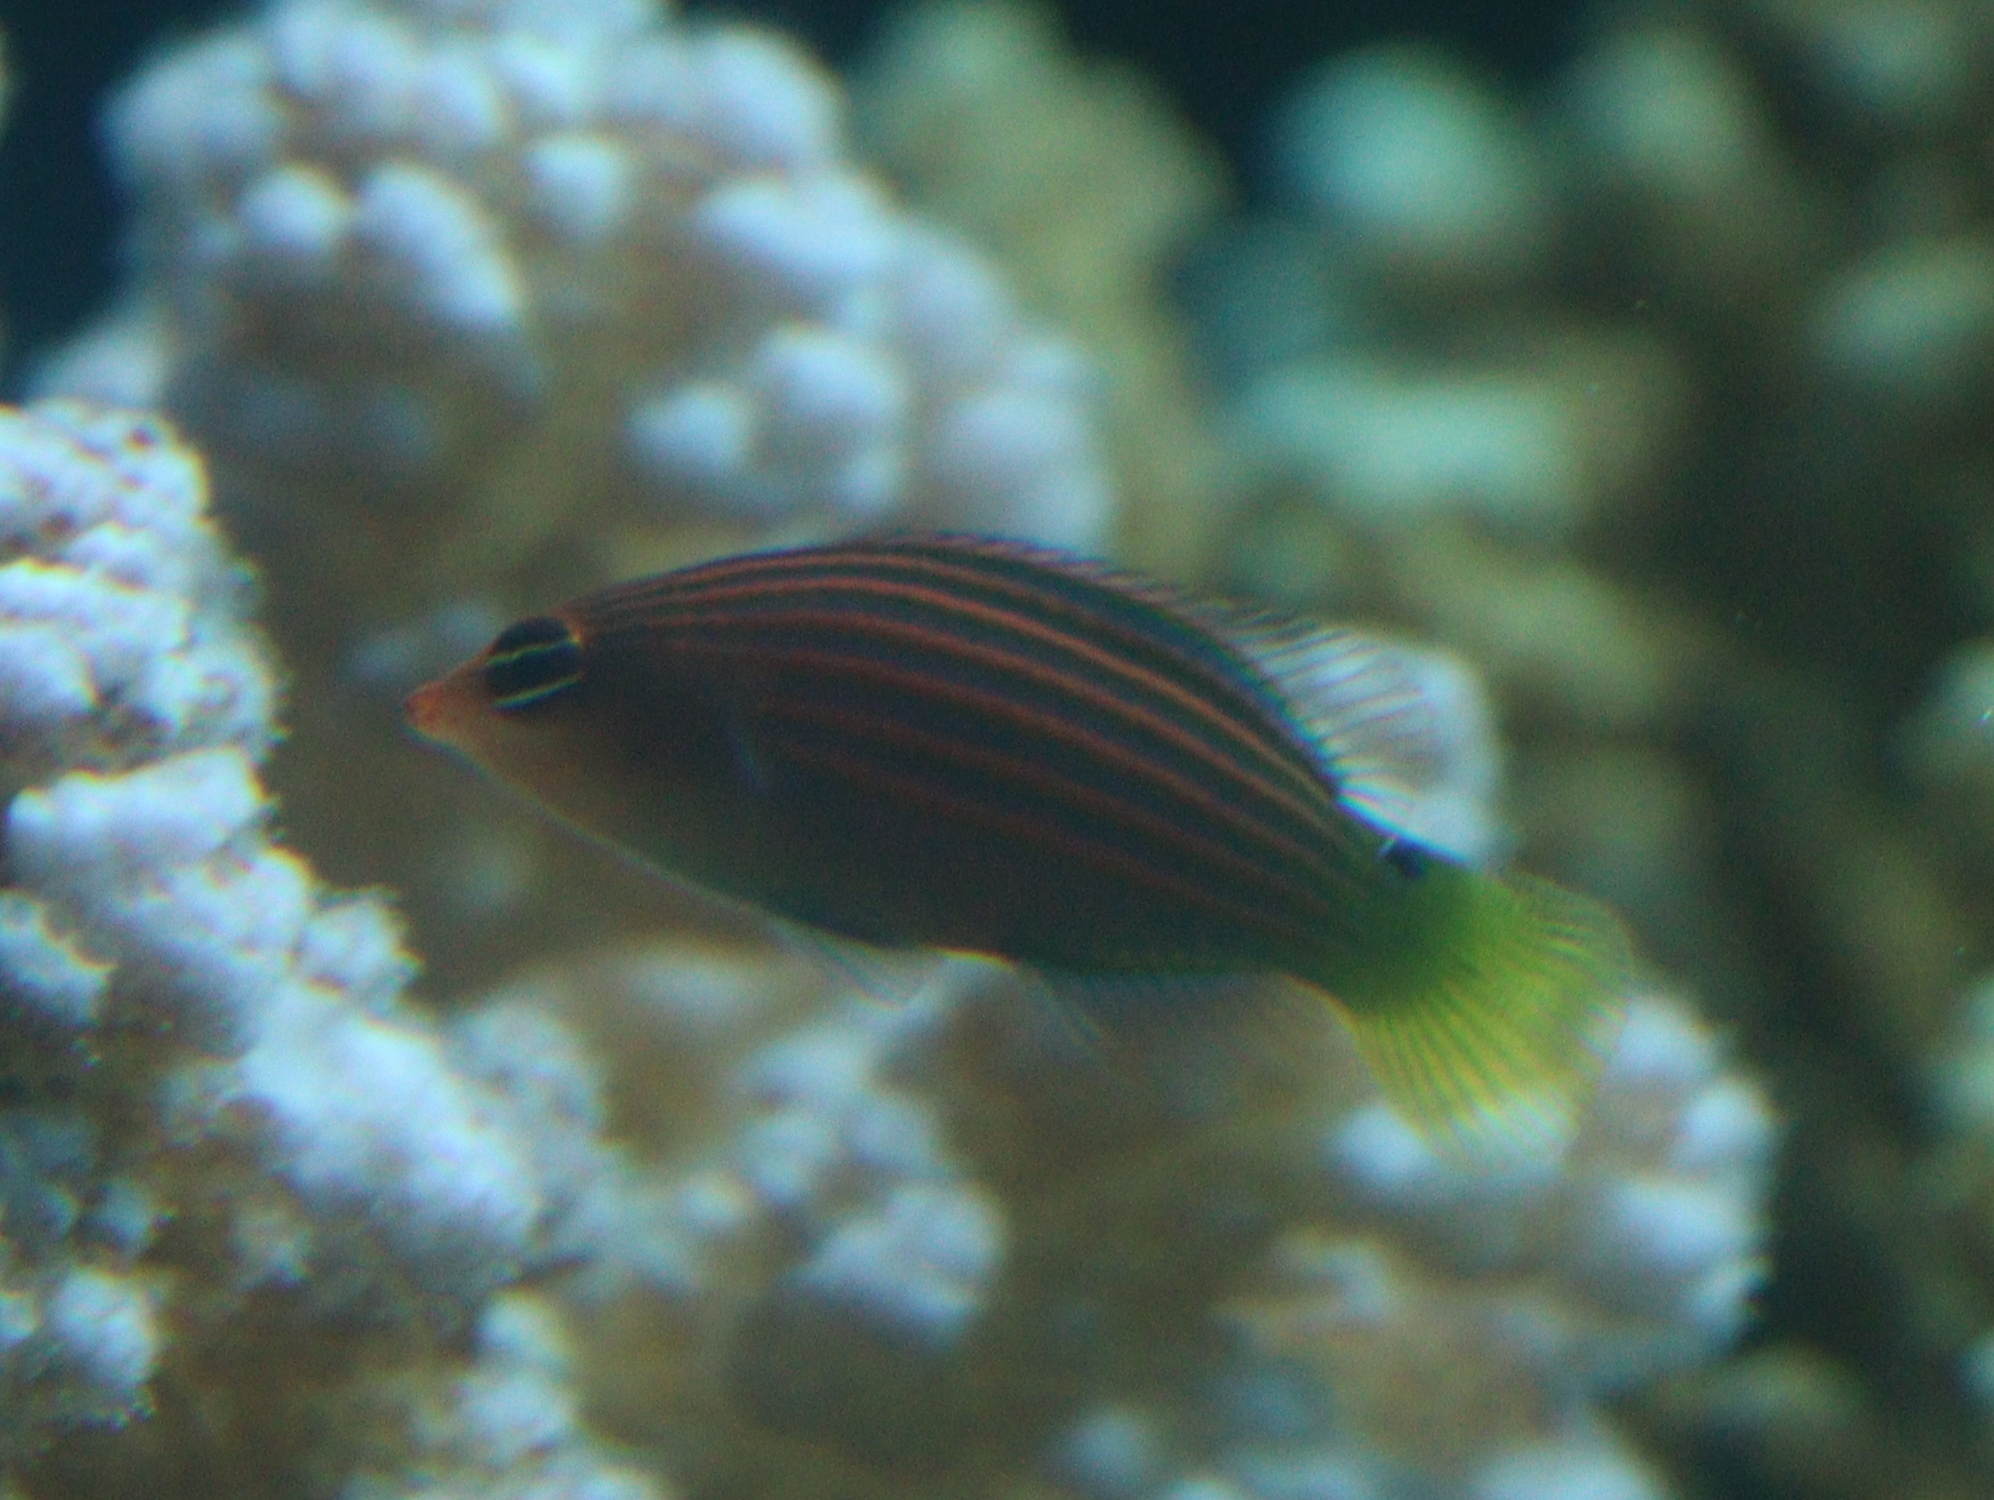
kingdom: Animalia
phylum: Chordata
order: Perciformes
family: Labridae
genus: Pseudocheilinus
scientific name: Pseudocheilinus hexataenia
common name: Sixline wrasse
